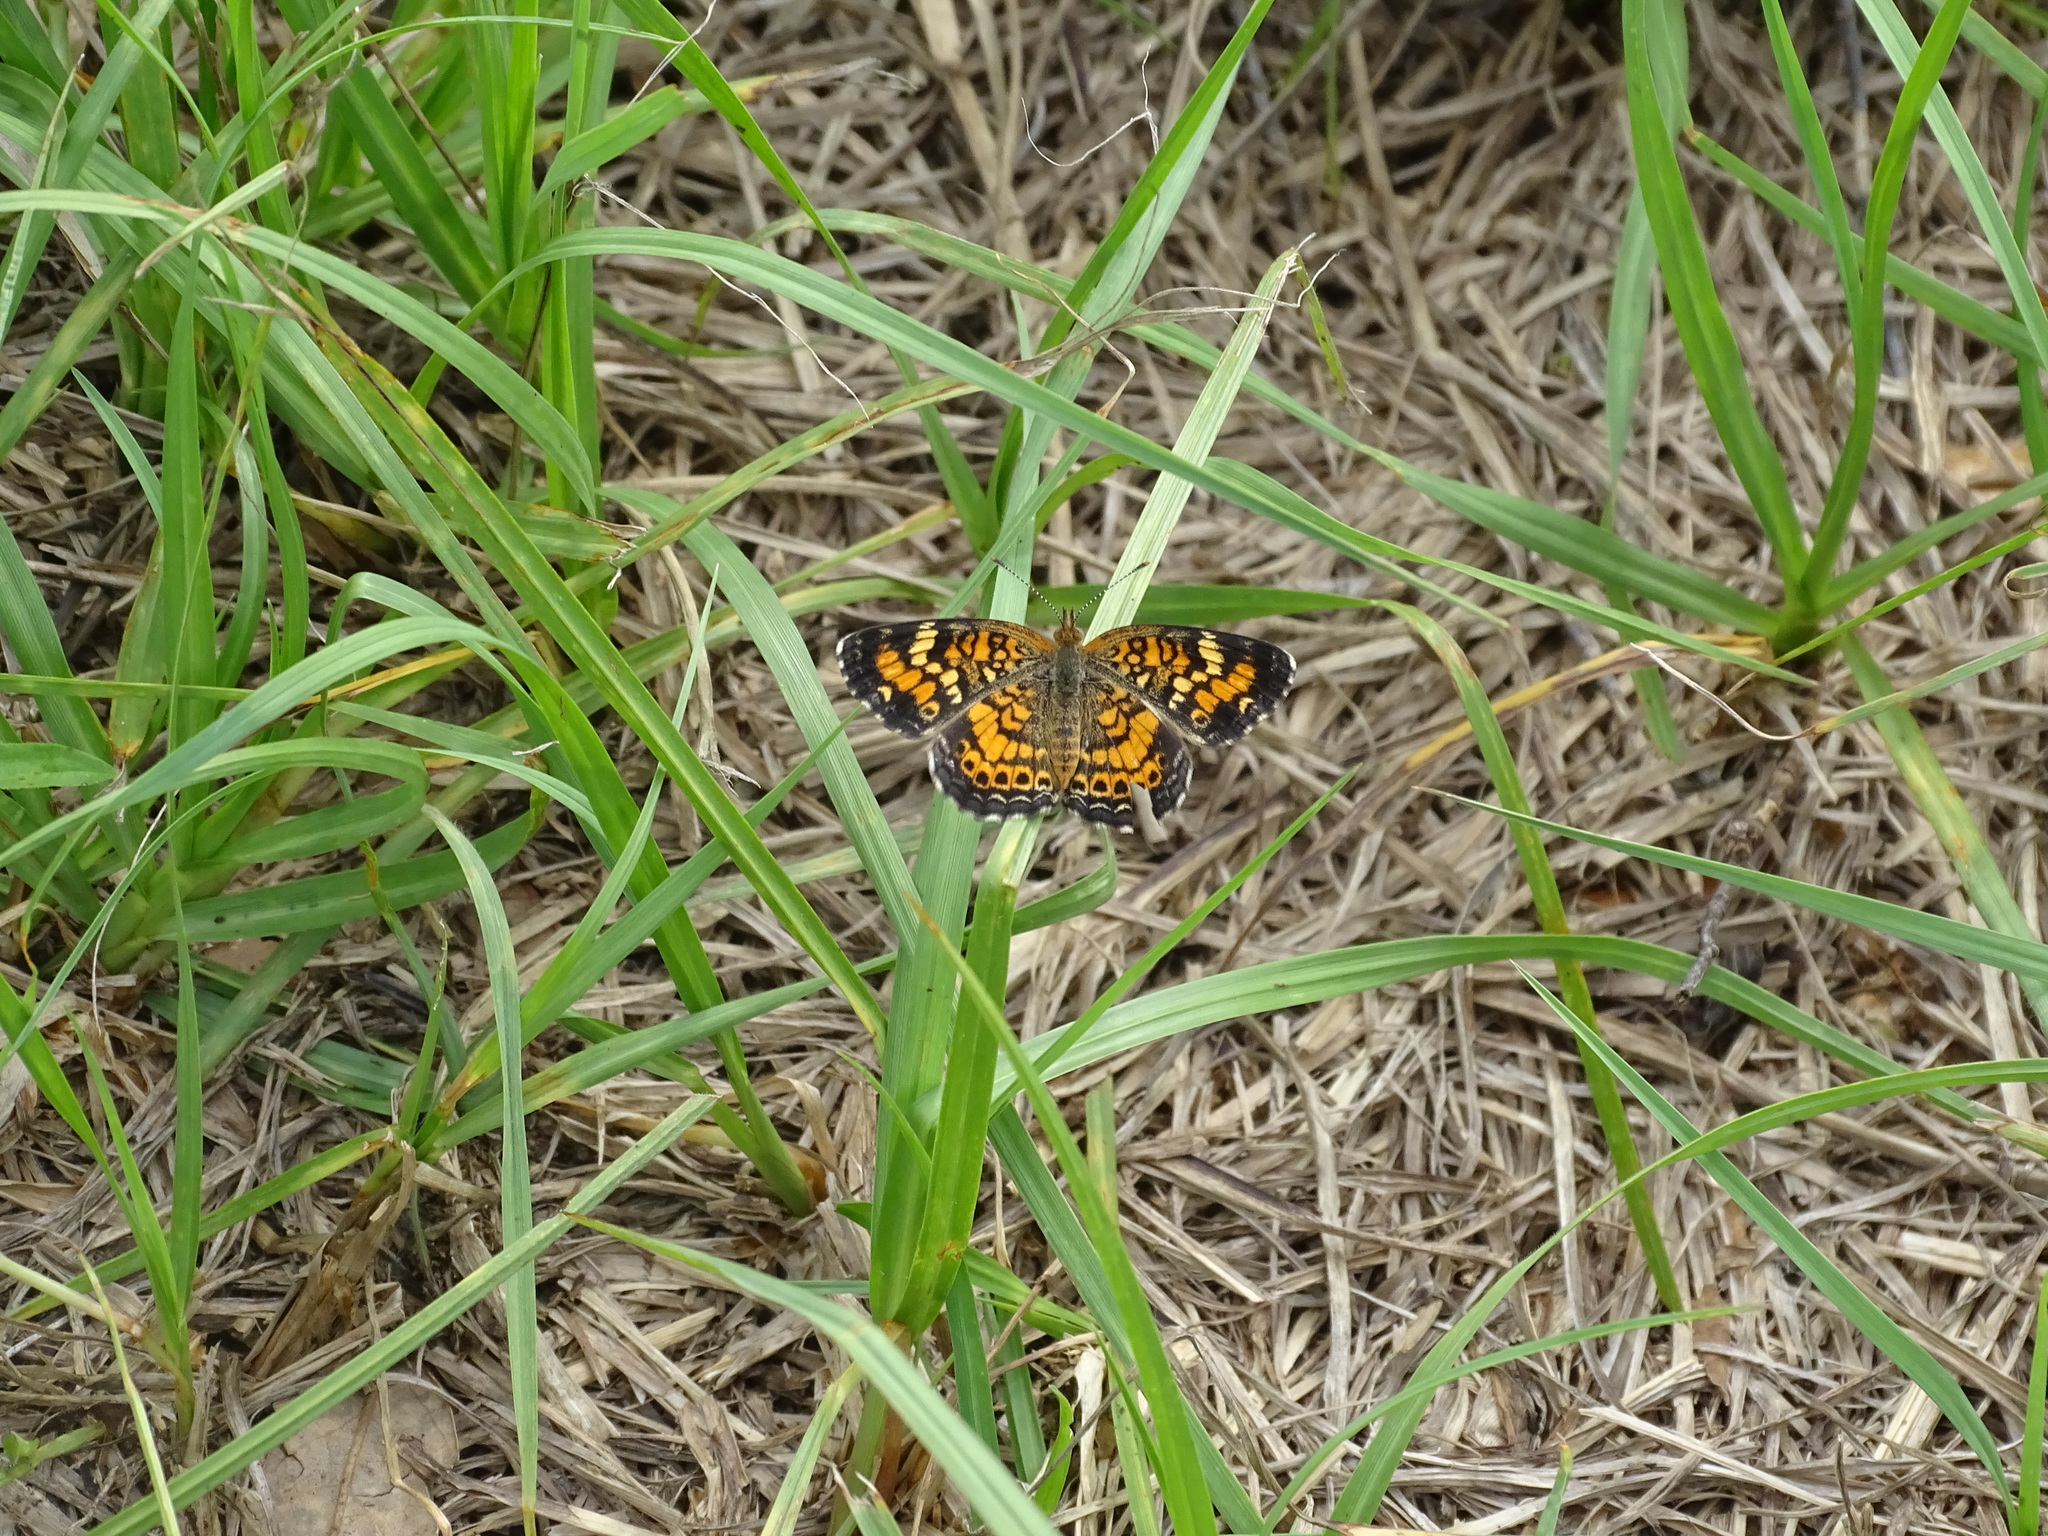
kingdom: Animalia
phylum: Arthropoda
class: Insecta
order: Lepidoptera
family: Nymphalidae
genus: Phyciodes
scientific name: Phyciodes phaon
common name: Phaon crescent
